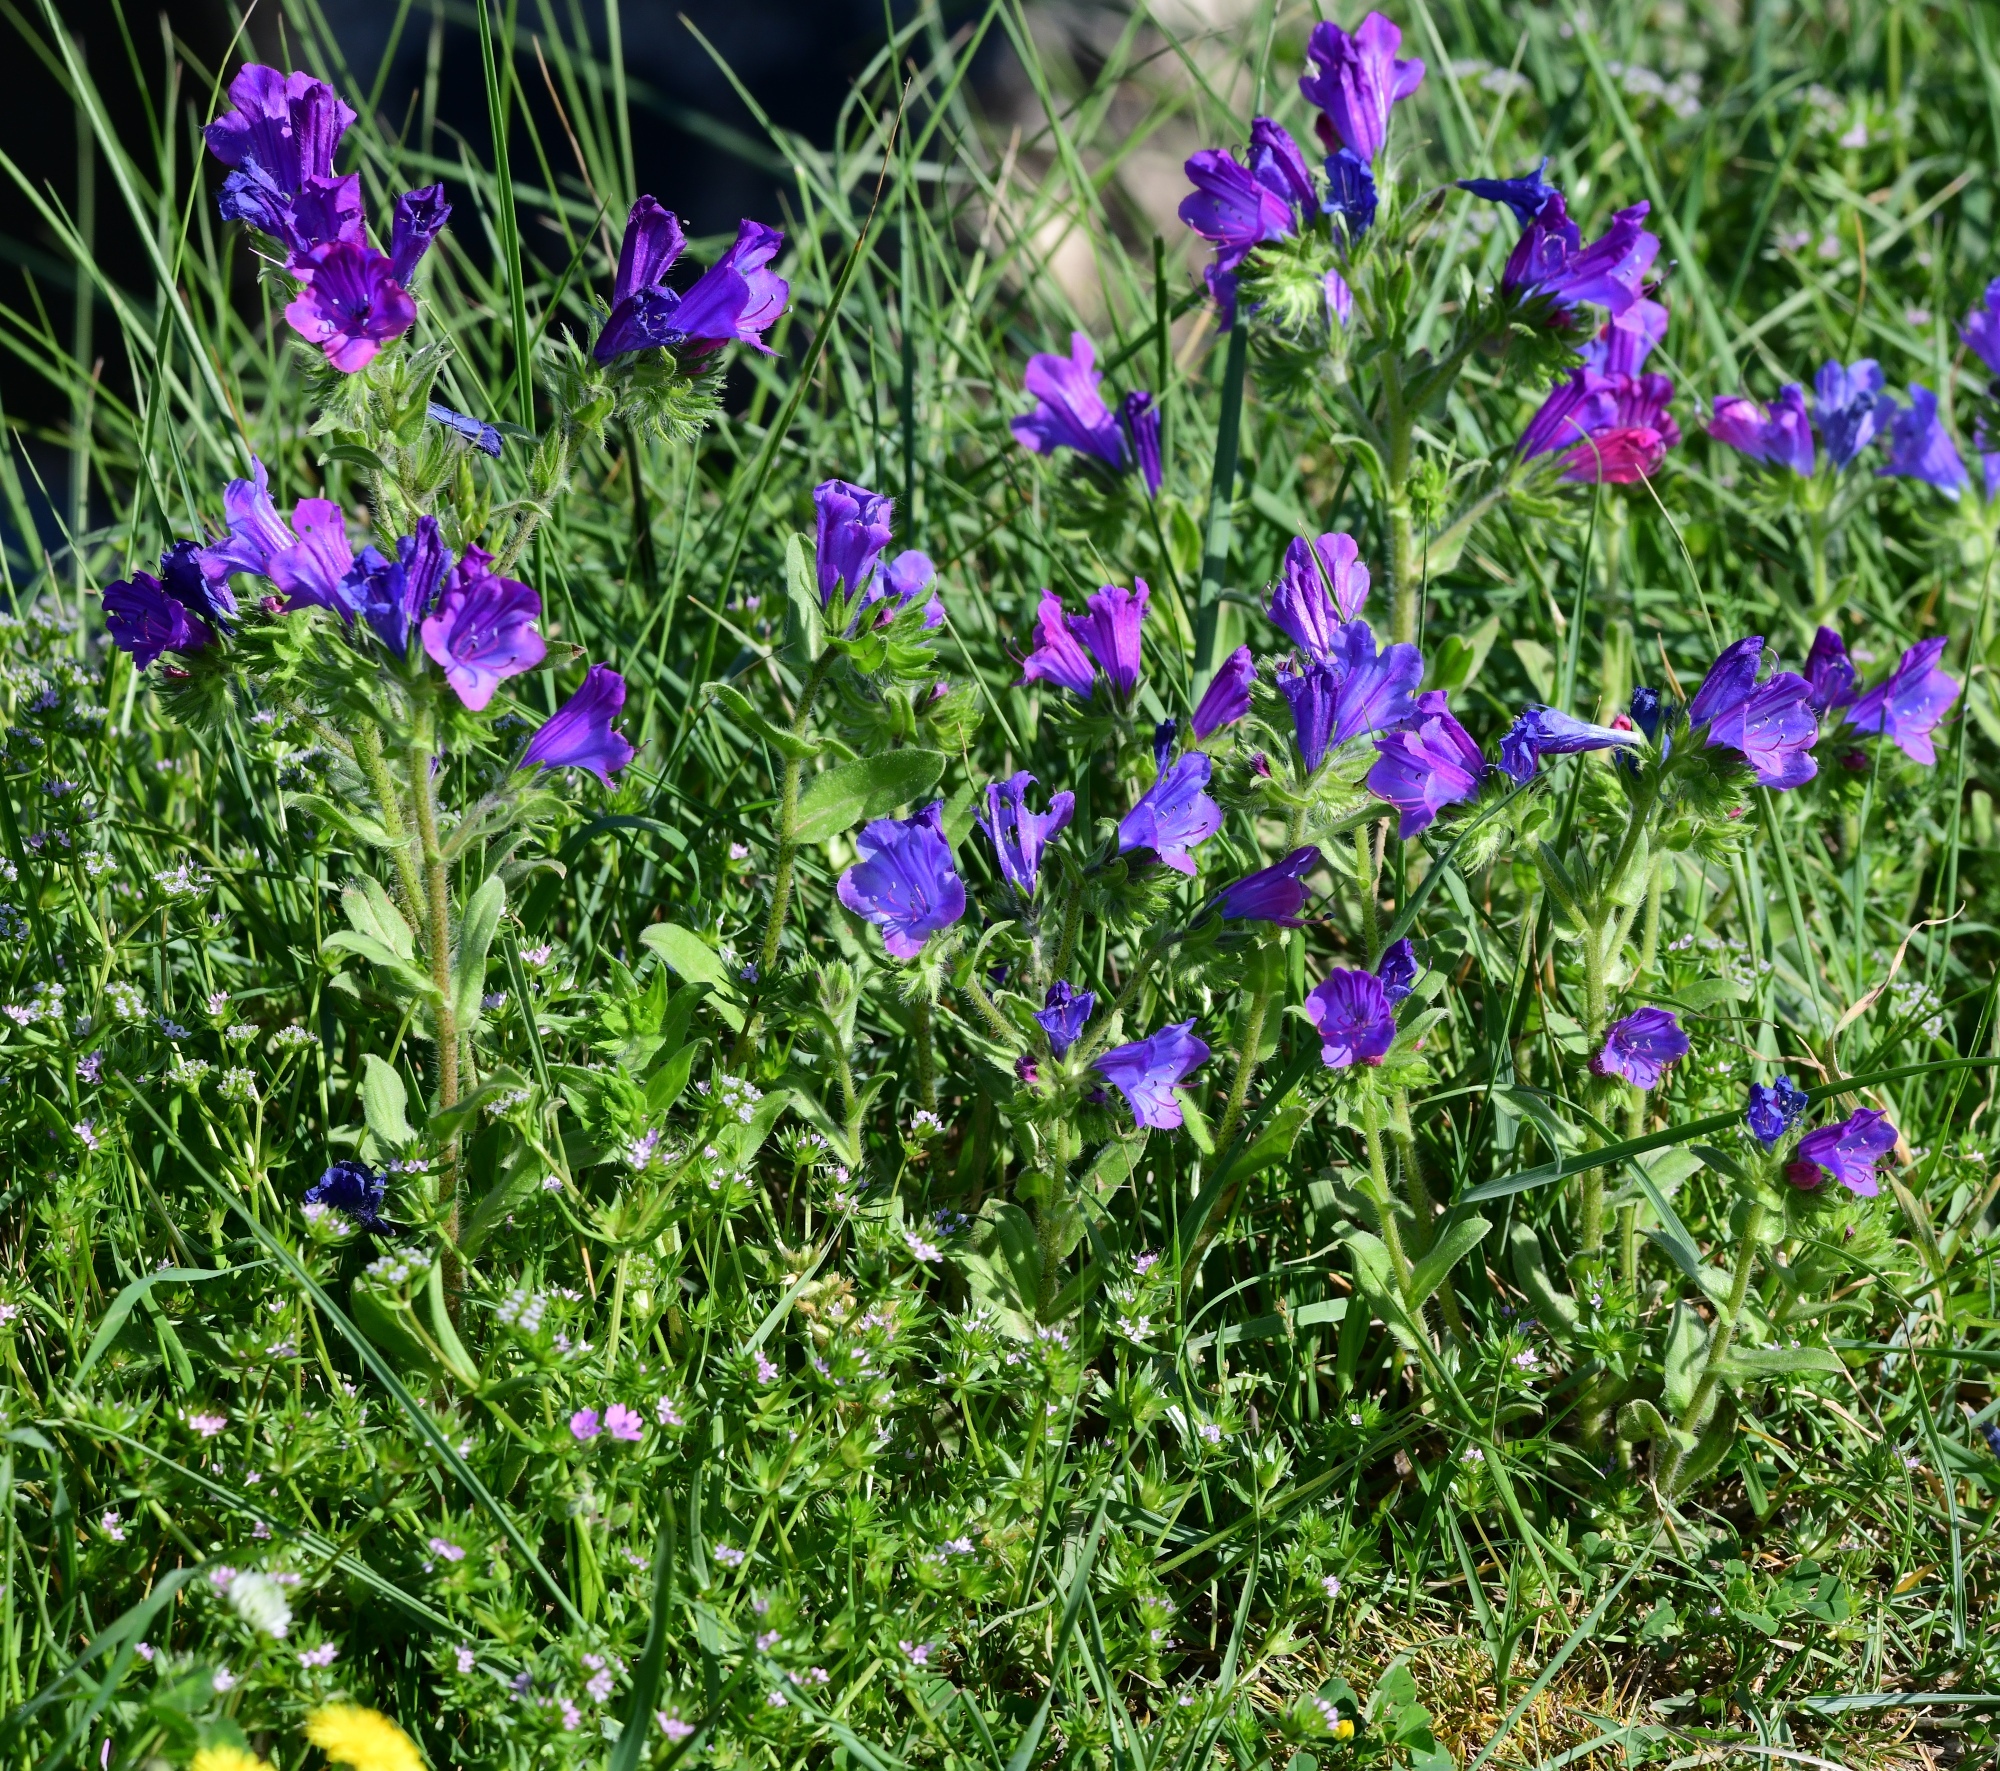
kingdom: Plantae
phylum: Tracheophyta
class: Magnoliopsida
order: Boraginales
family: Boraginaceae
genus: Echium
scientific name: Echium plantagineum
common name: Purple viper's-bugloss
